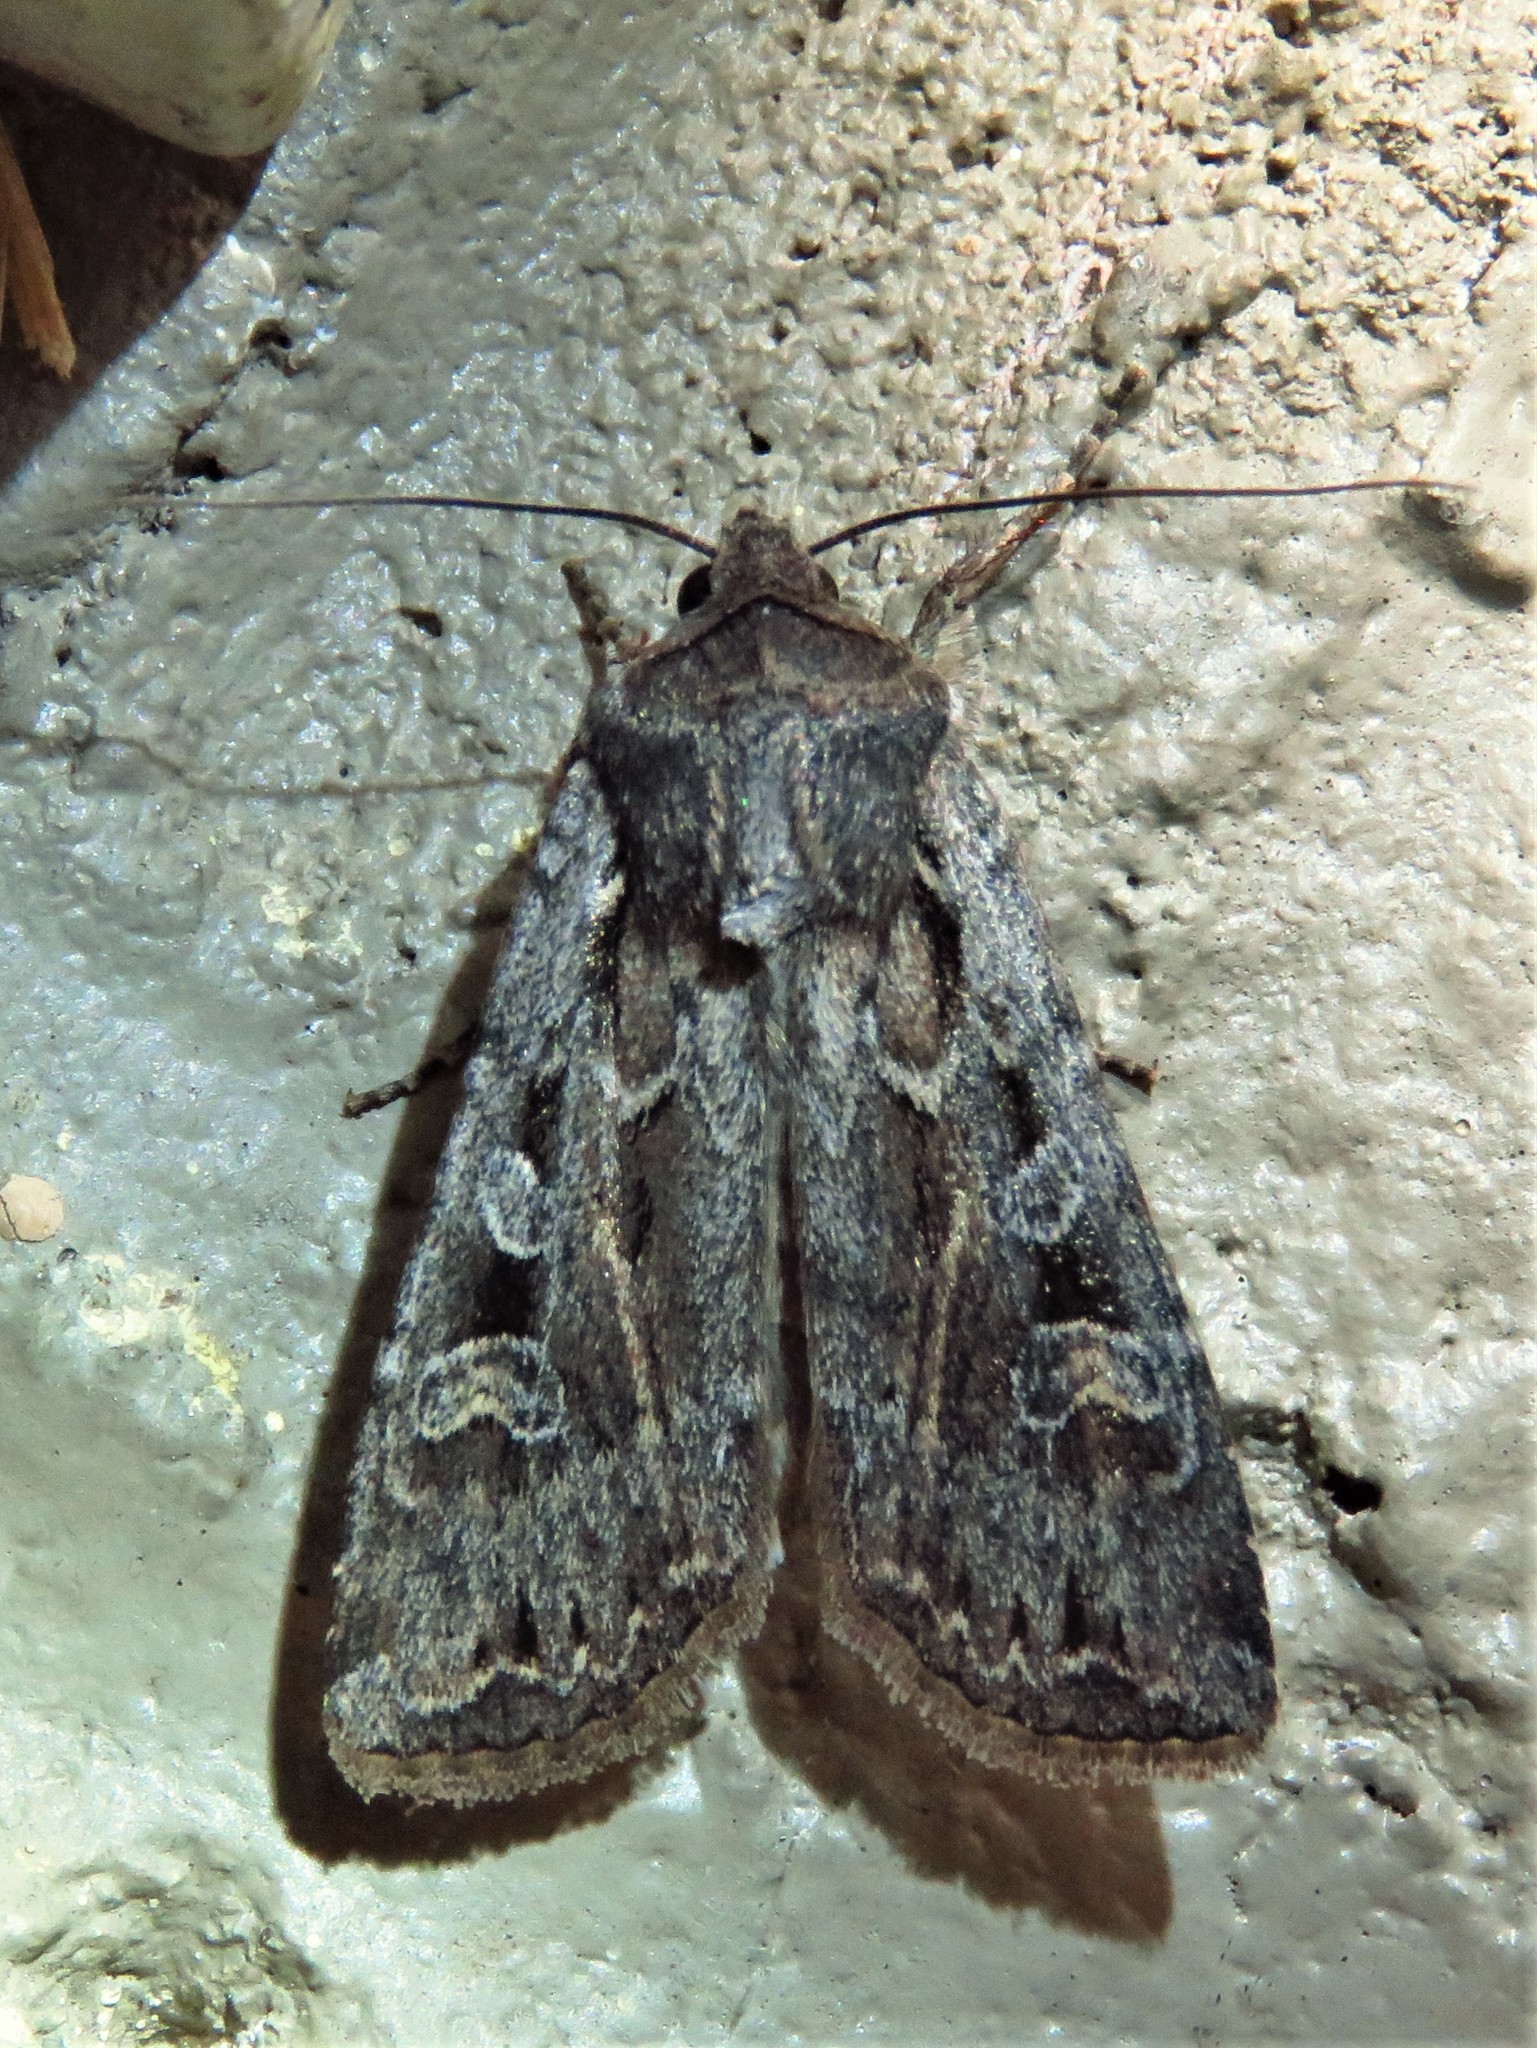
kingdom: Animalia
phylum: Arthropoda
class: Insecta
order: Lepidoptera
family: Noctuidae
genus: Euxoa
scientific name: Euxoa auxiliaris
